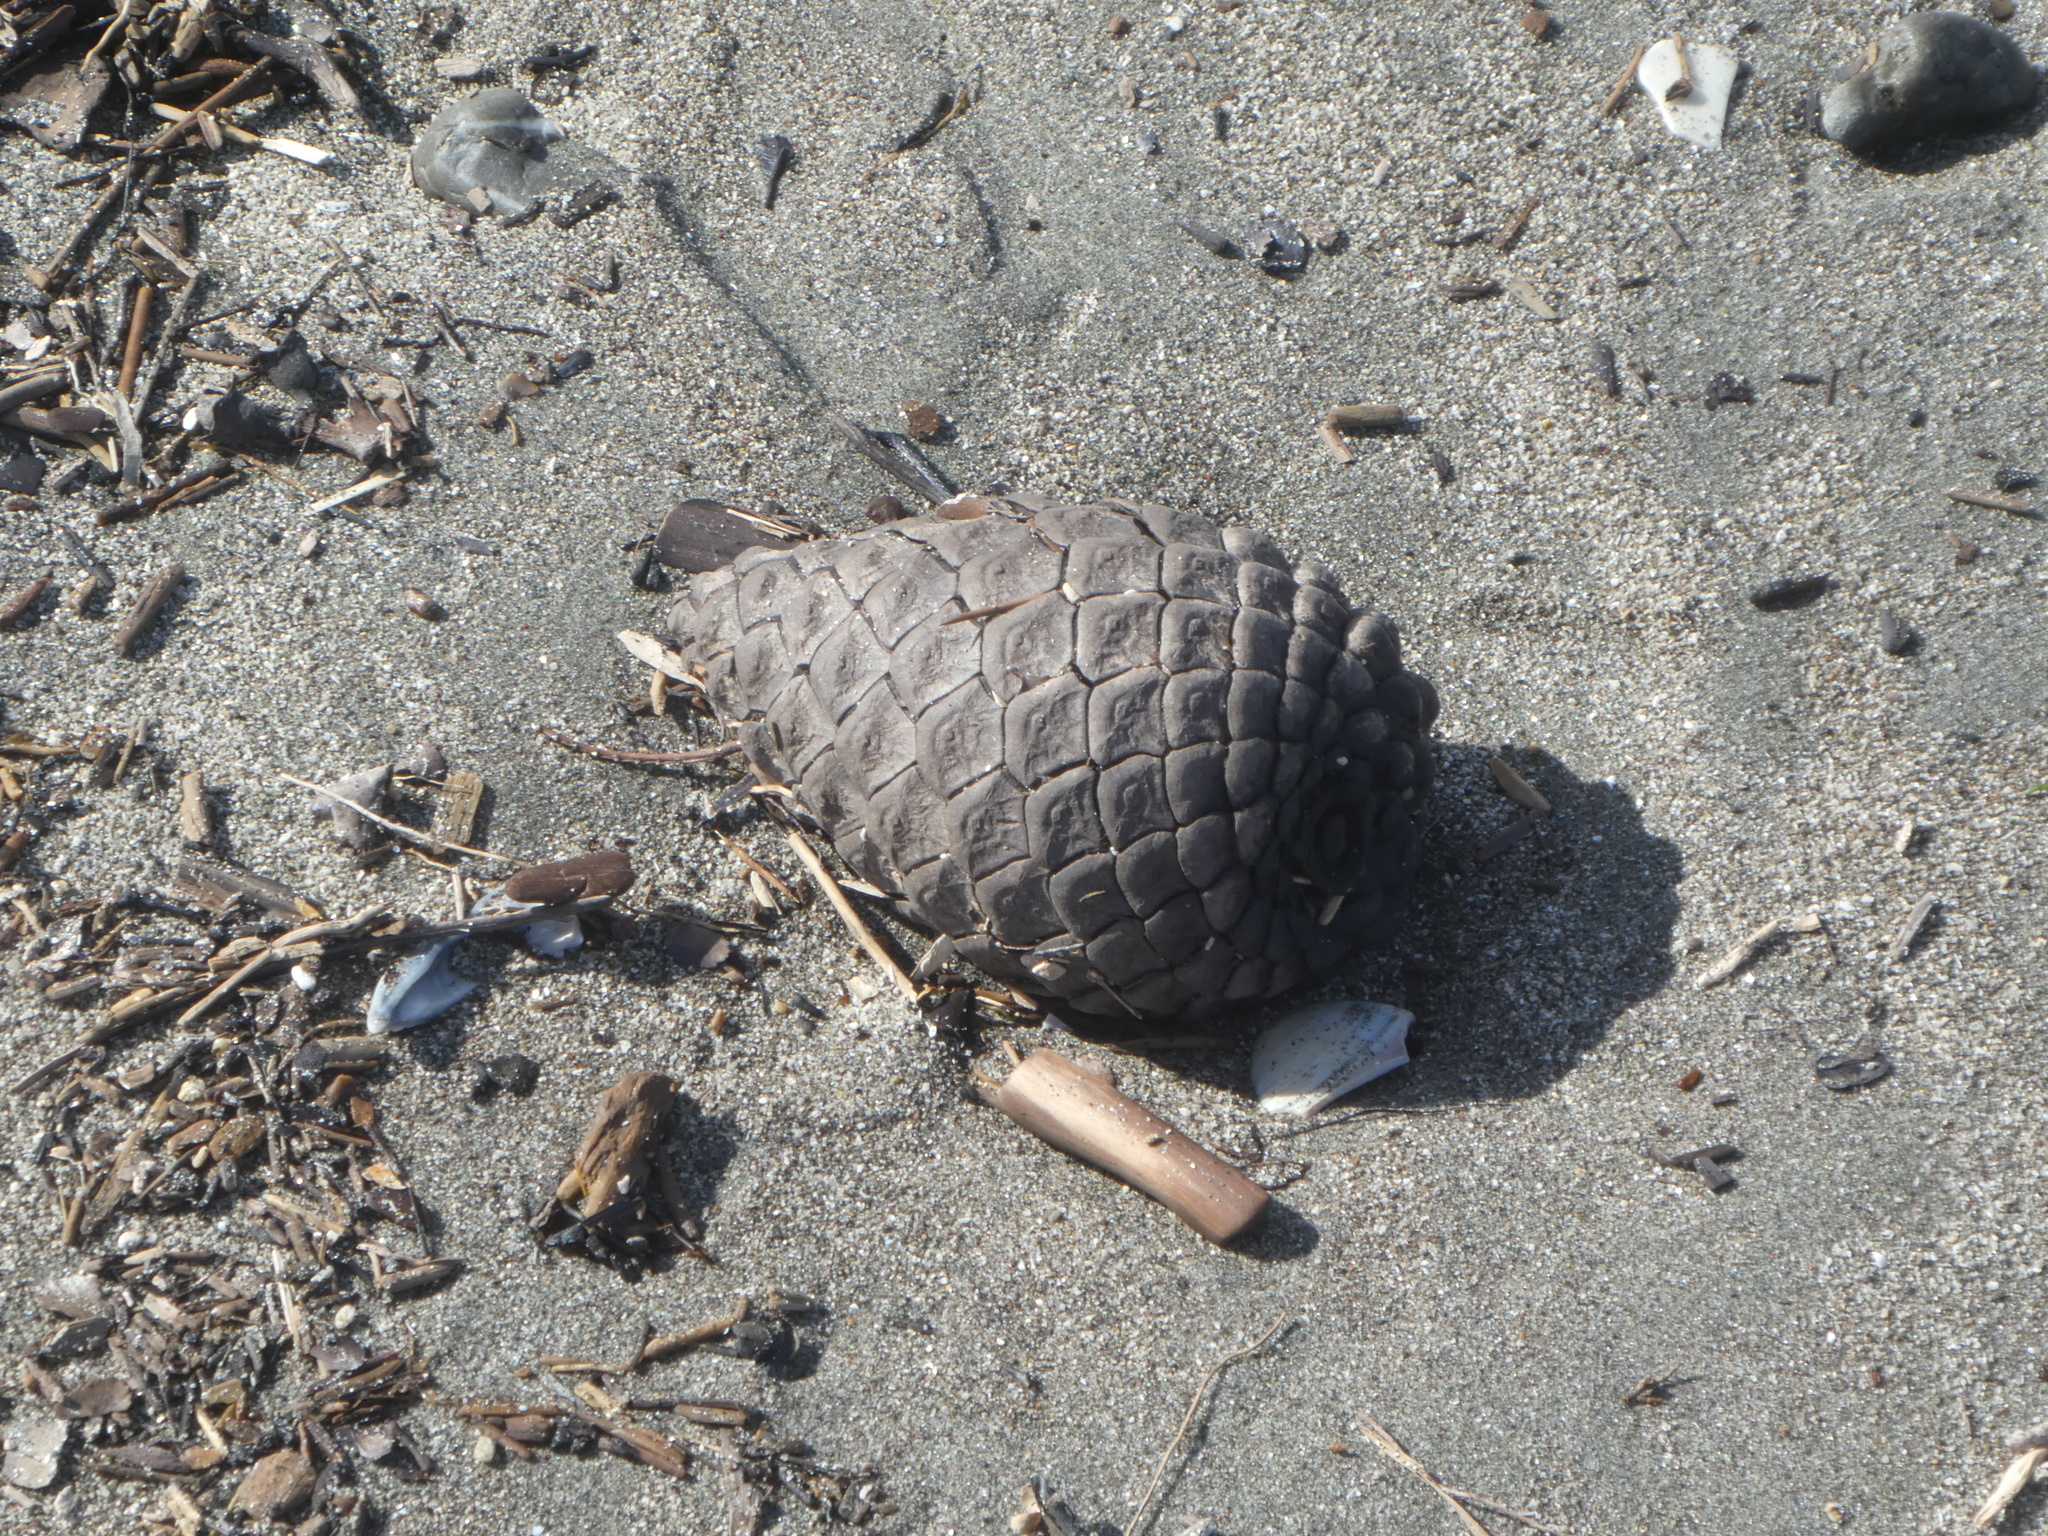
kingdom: Plantae
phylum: Tracheophyta
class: Pinopsida
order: Pinales
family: Pinaceae
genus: Pinus
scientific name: Pinus radiata
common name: Monterey pine
